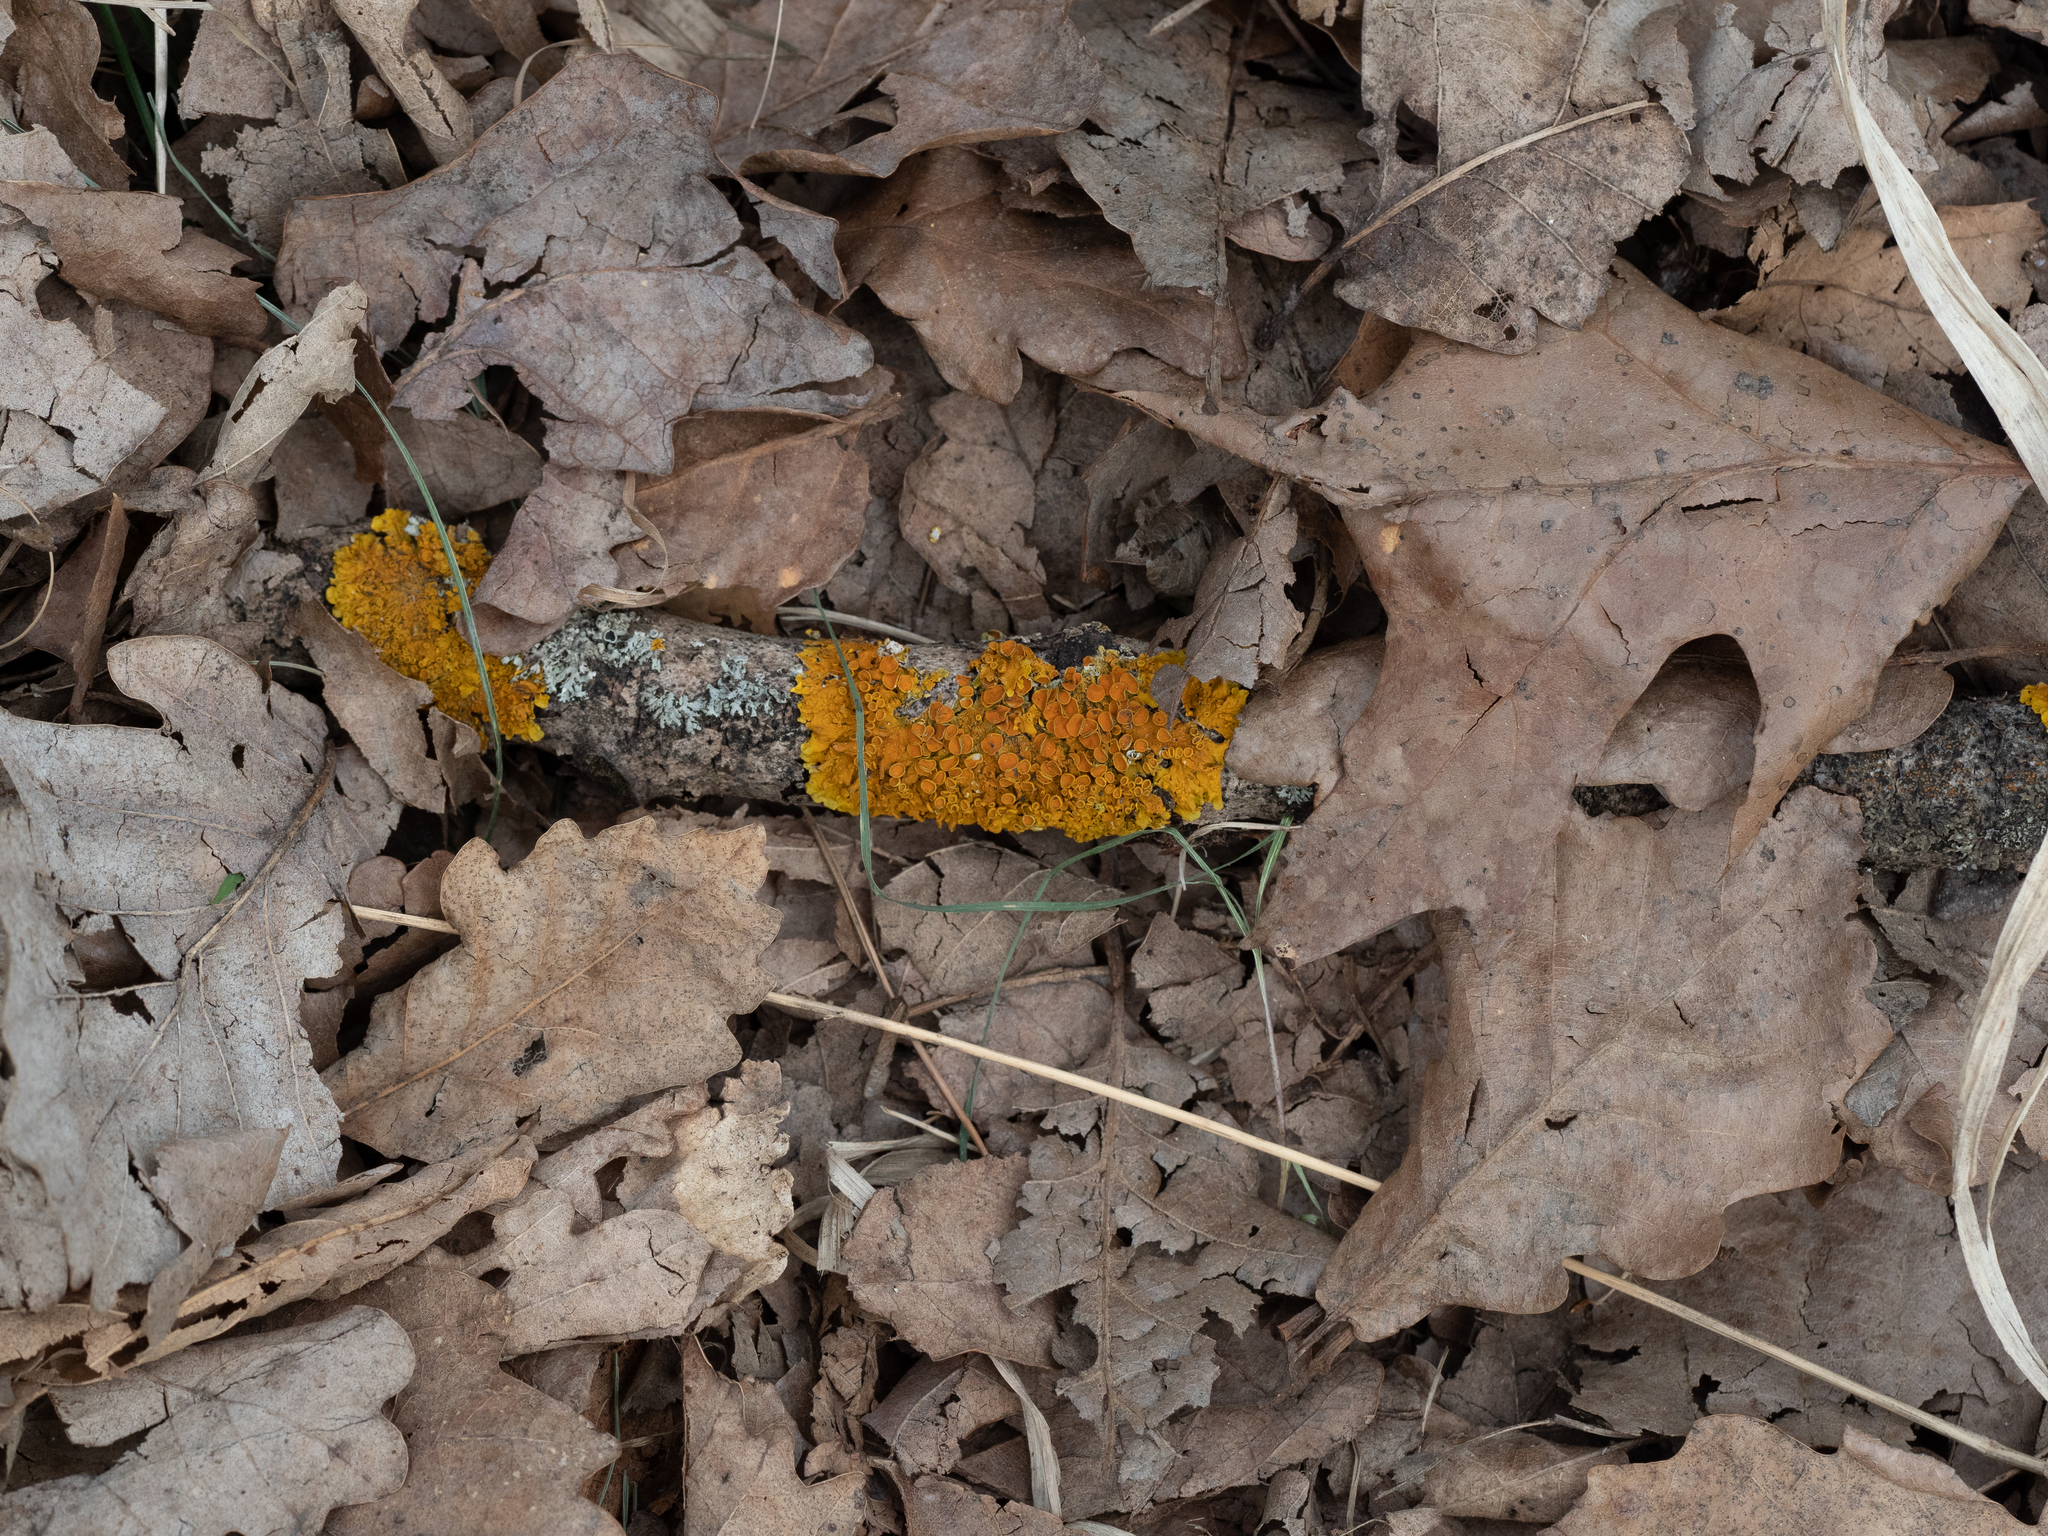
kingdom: Fungi
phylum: Ascomycota
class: Lecanoromycetes
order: Teloschistales
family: Teloschistaceae
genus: Xanthoria
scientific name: Xanthoria parietina
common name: Common orange lichen
